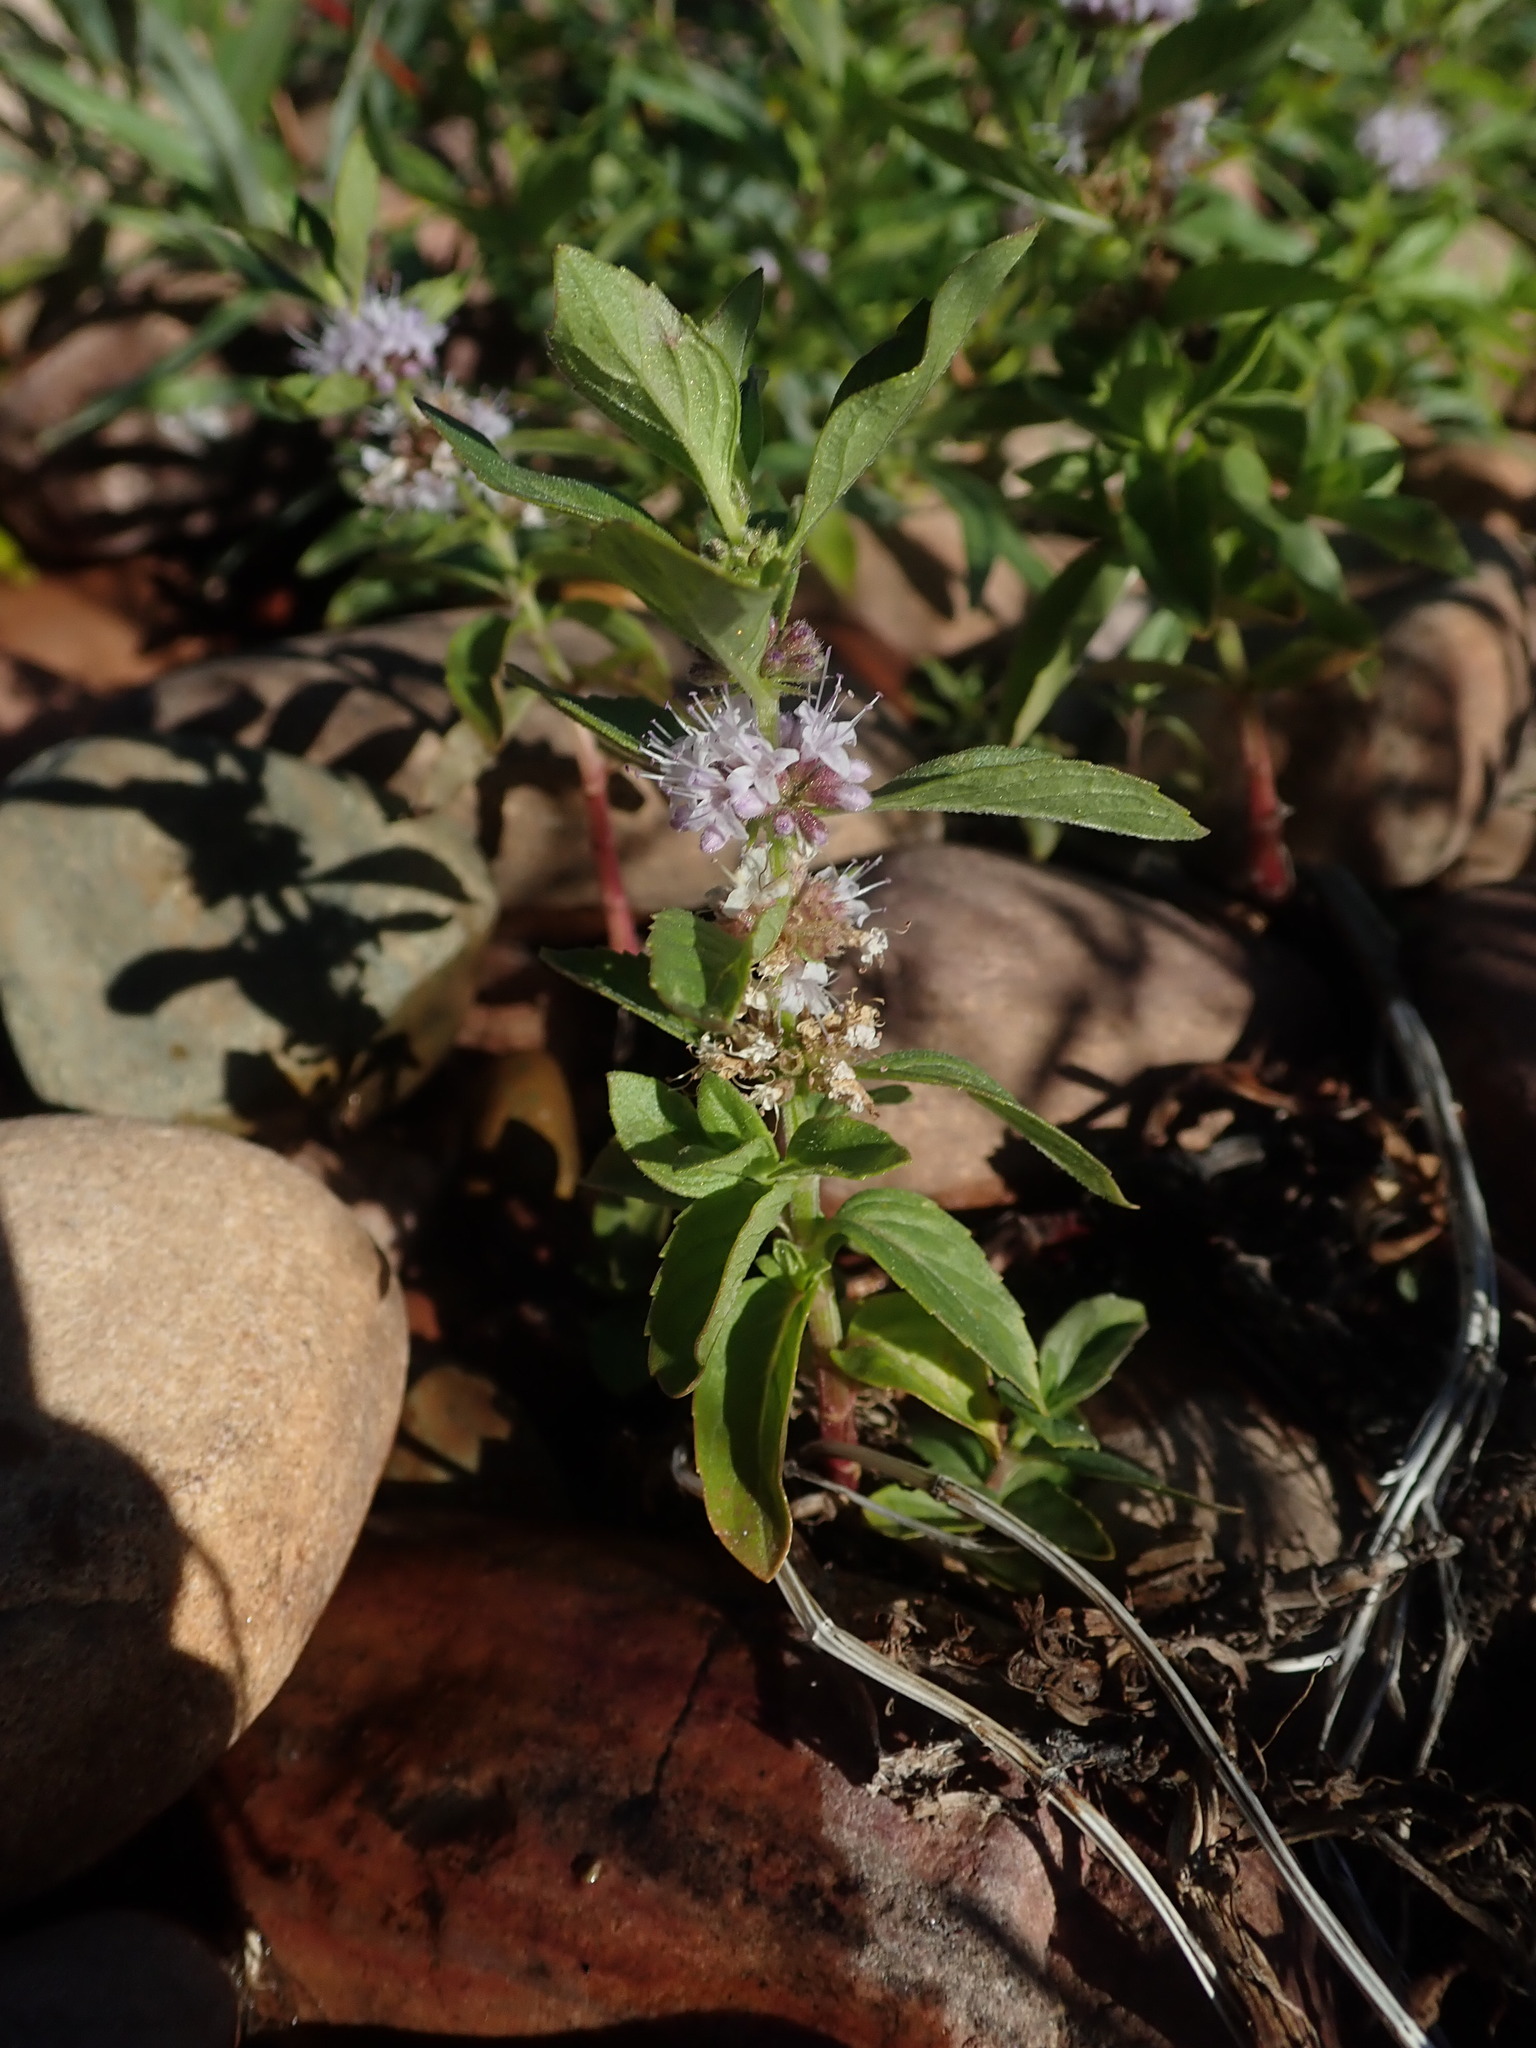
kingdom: Plantae
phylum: Tracheophyta
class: Magnoliopsida
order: Lamiales
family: Lamiaceae
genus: Mentha
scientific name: Mentha canadensis
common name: American corn mint
